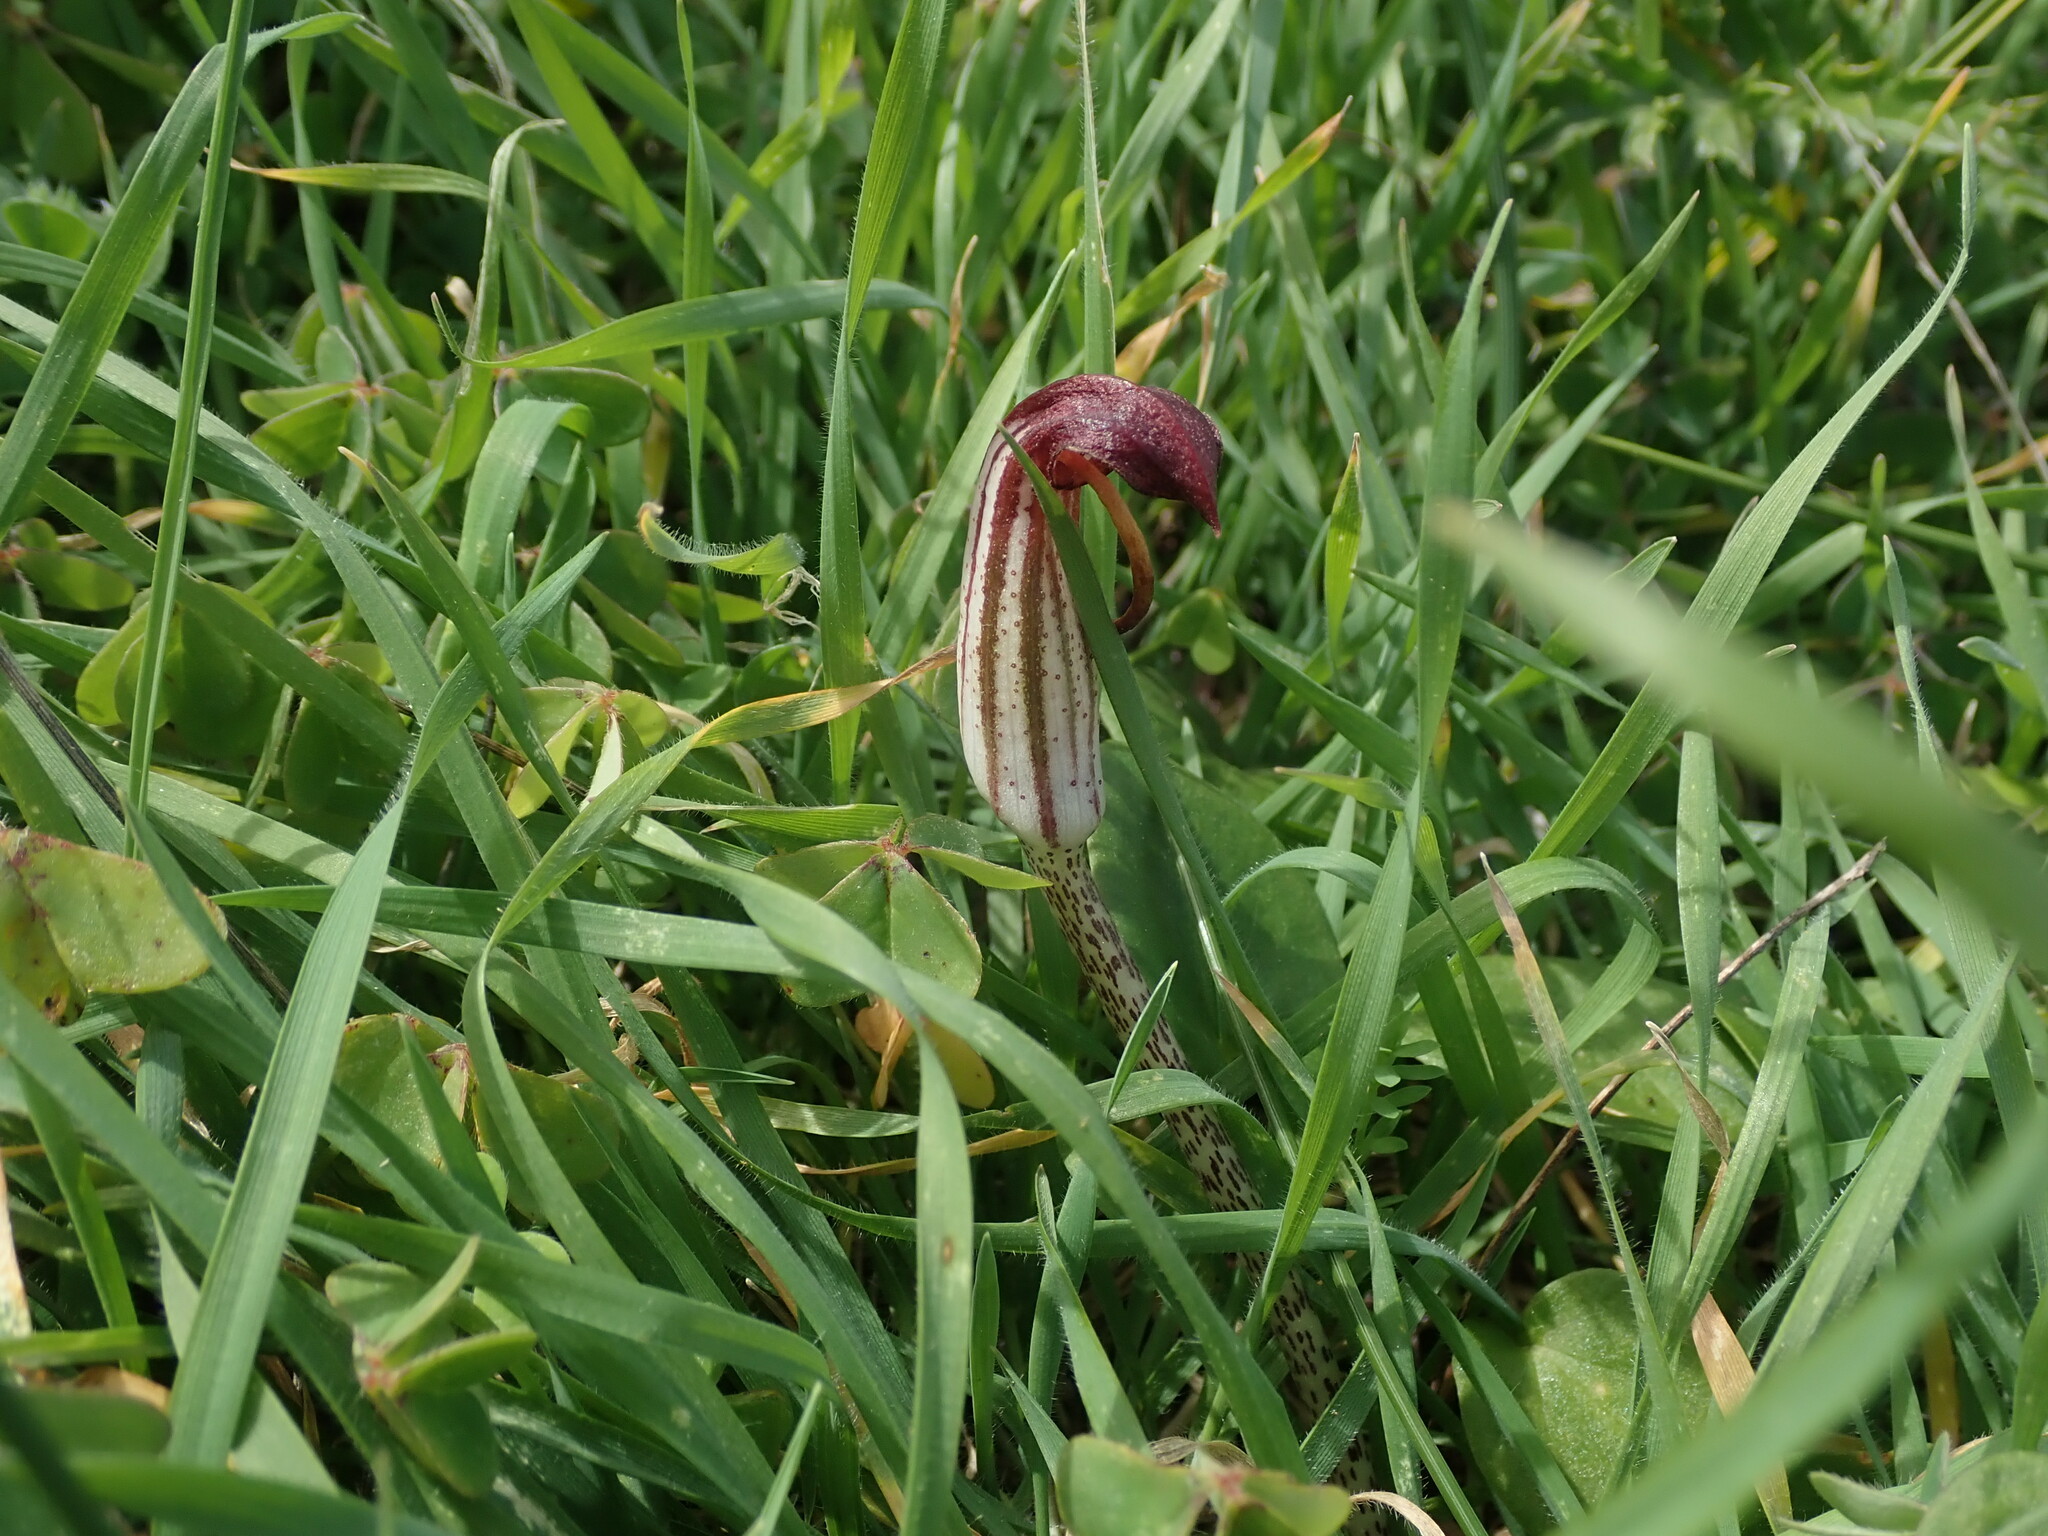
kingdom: Plantae
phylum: Tracheophyta
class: Liliopsida
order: Alismatales
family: Araceae
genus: Arisarum
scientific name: Arisarum vulgare
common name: Common arisarum
